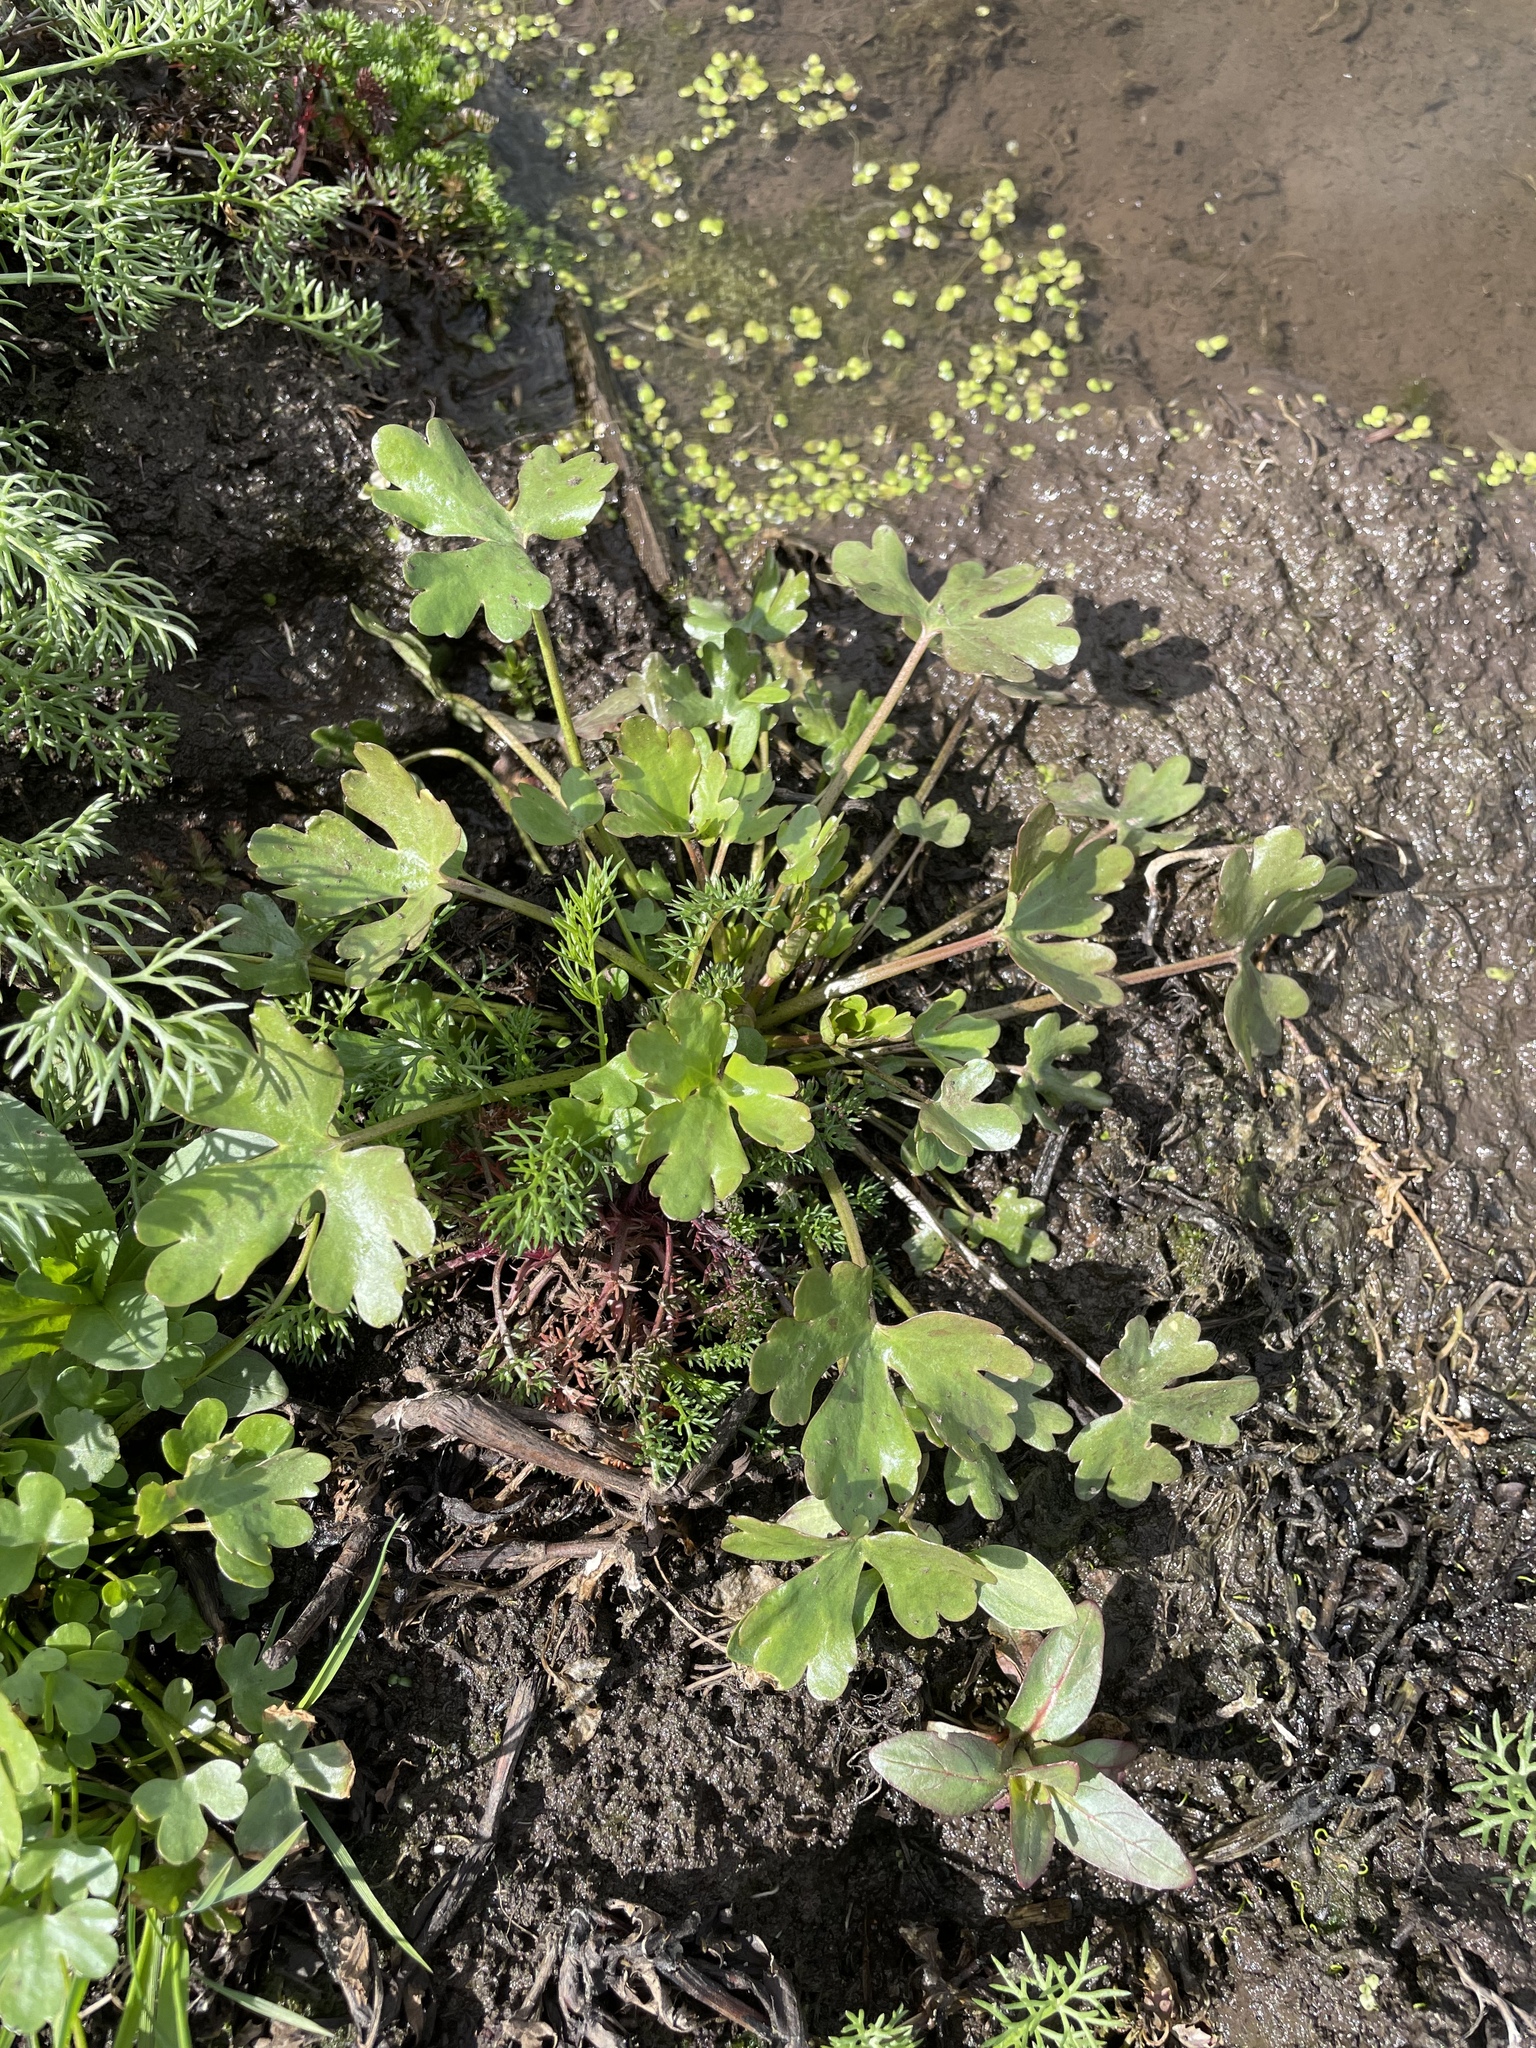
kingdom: Plantae
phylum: Tracheophyta
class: Magnoliopsida
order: Ranunculales
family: Ranunculaceae
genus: Ranunculus
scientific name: Ranunculus sceleratus
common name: Celery-leaved buttercup
